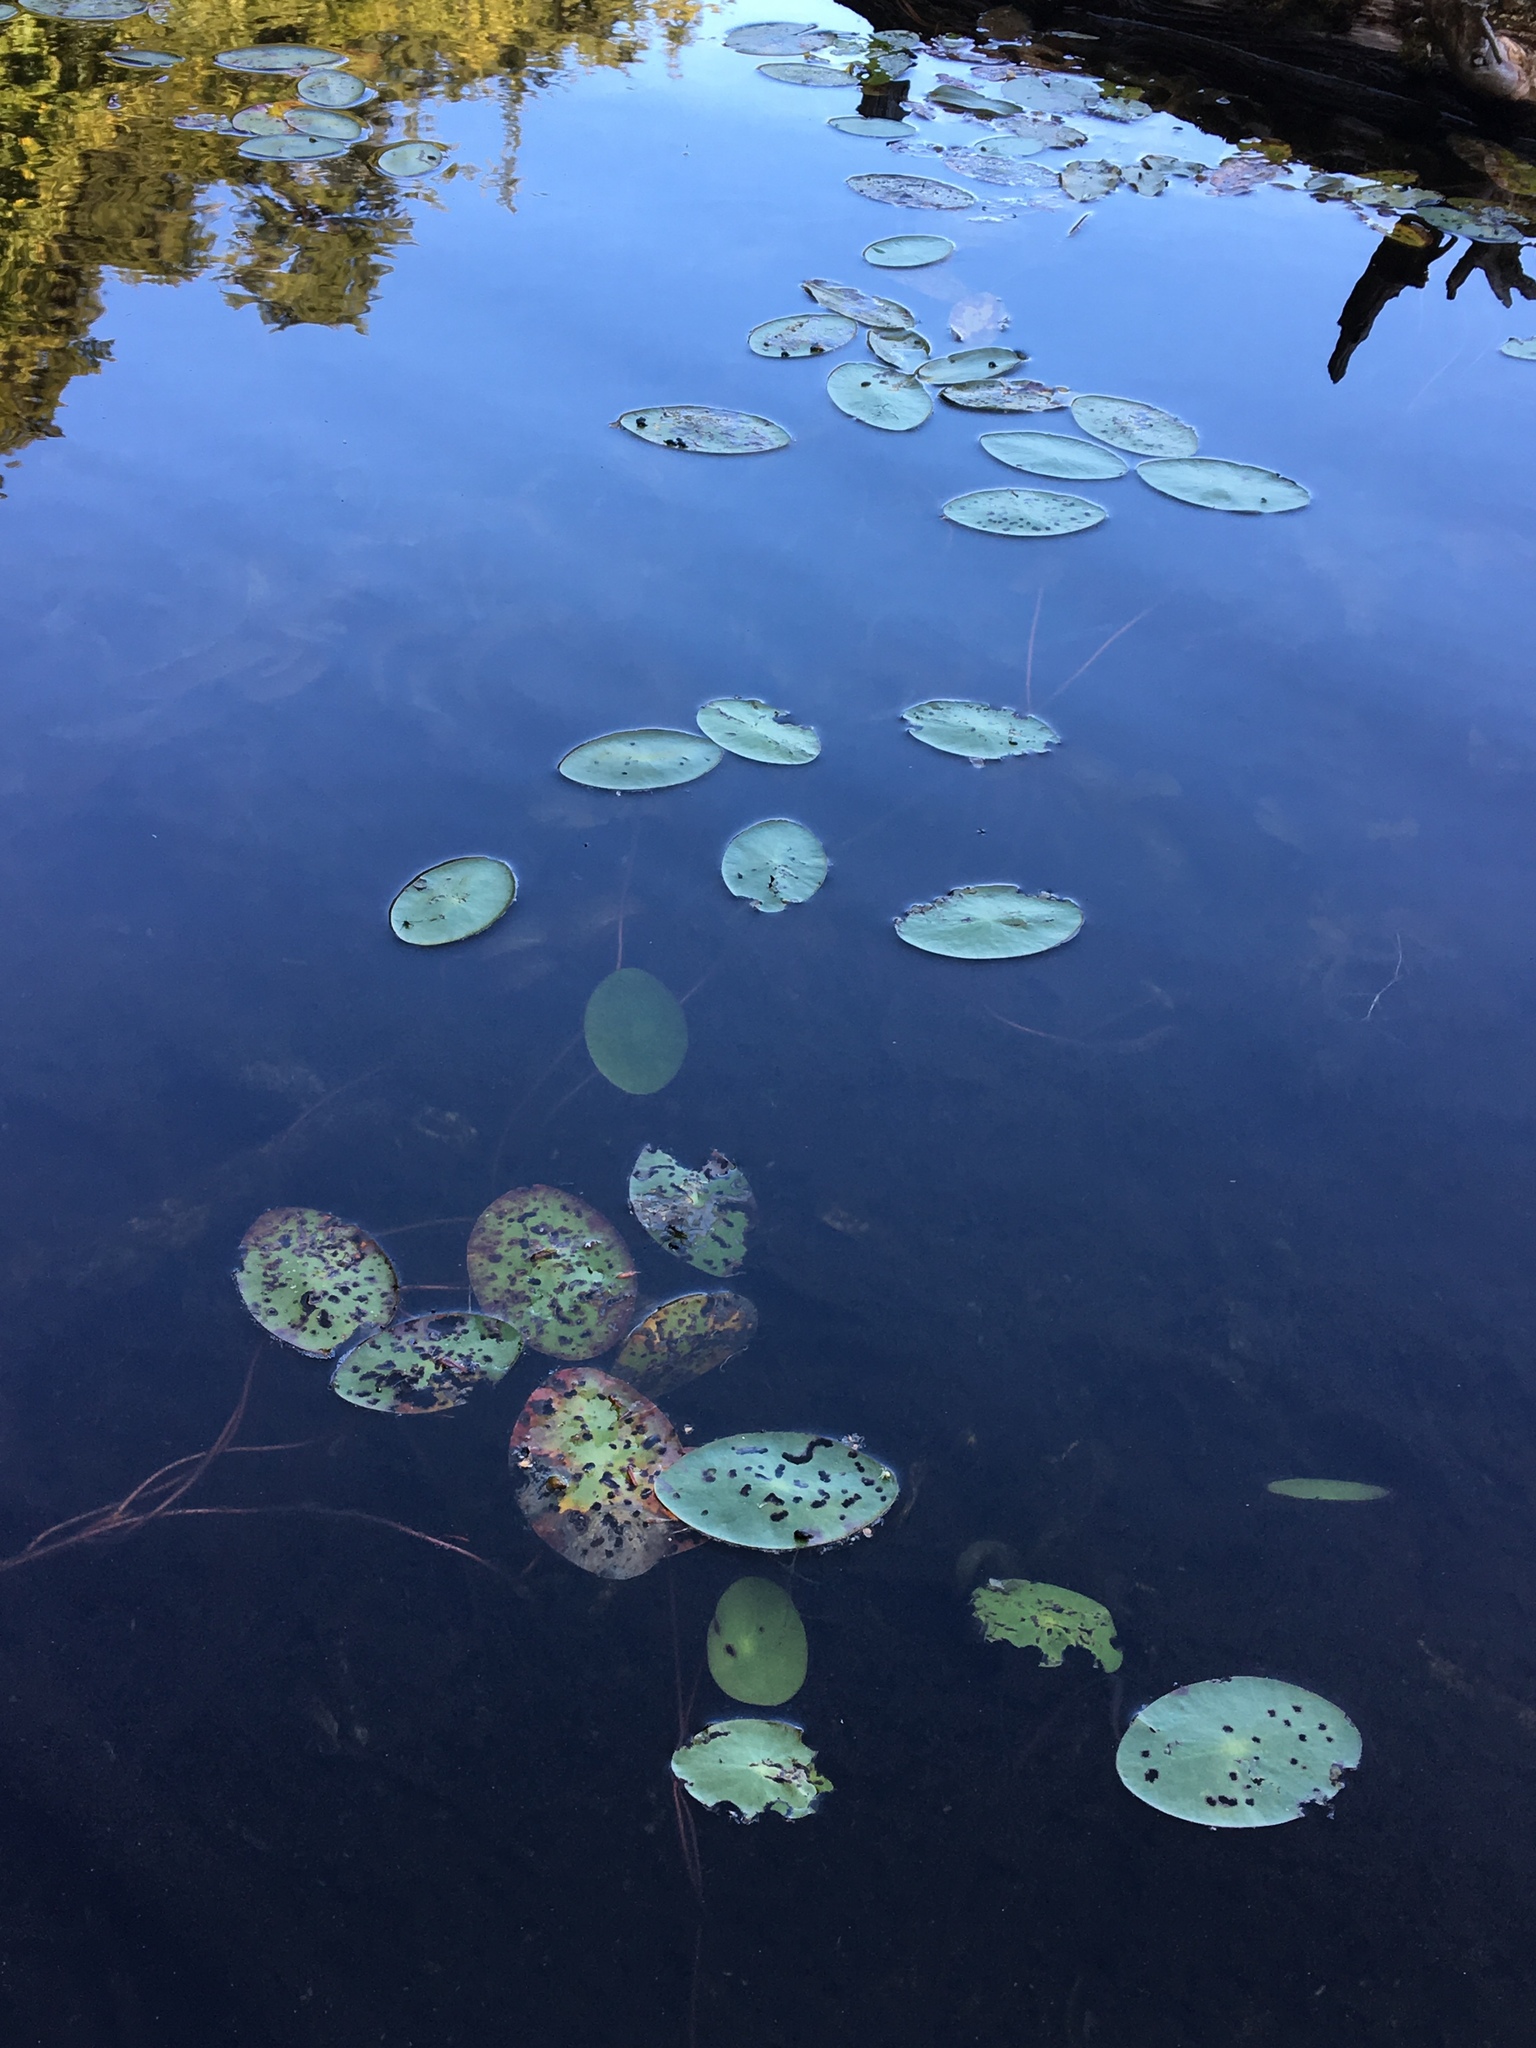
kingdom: Plantae
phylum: Tracheophyta
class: Magnoliopsida
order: Nymphaeales
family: Cabombaceae
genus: Brasenia
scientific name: Brasenia schreberi
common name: Water-shield
